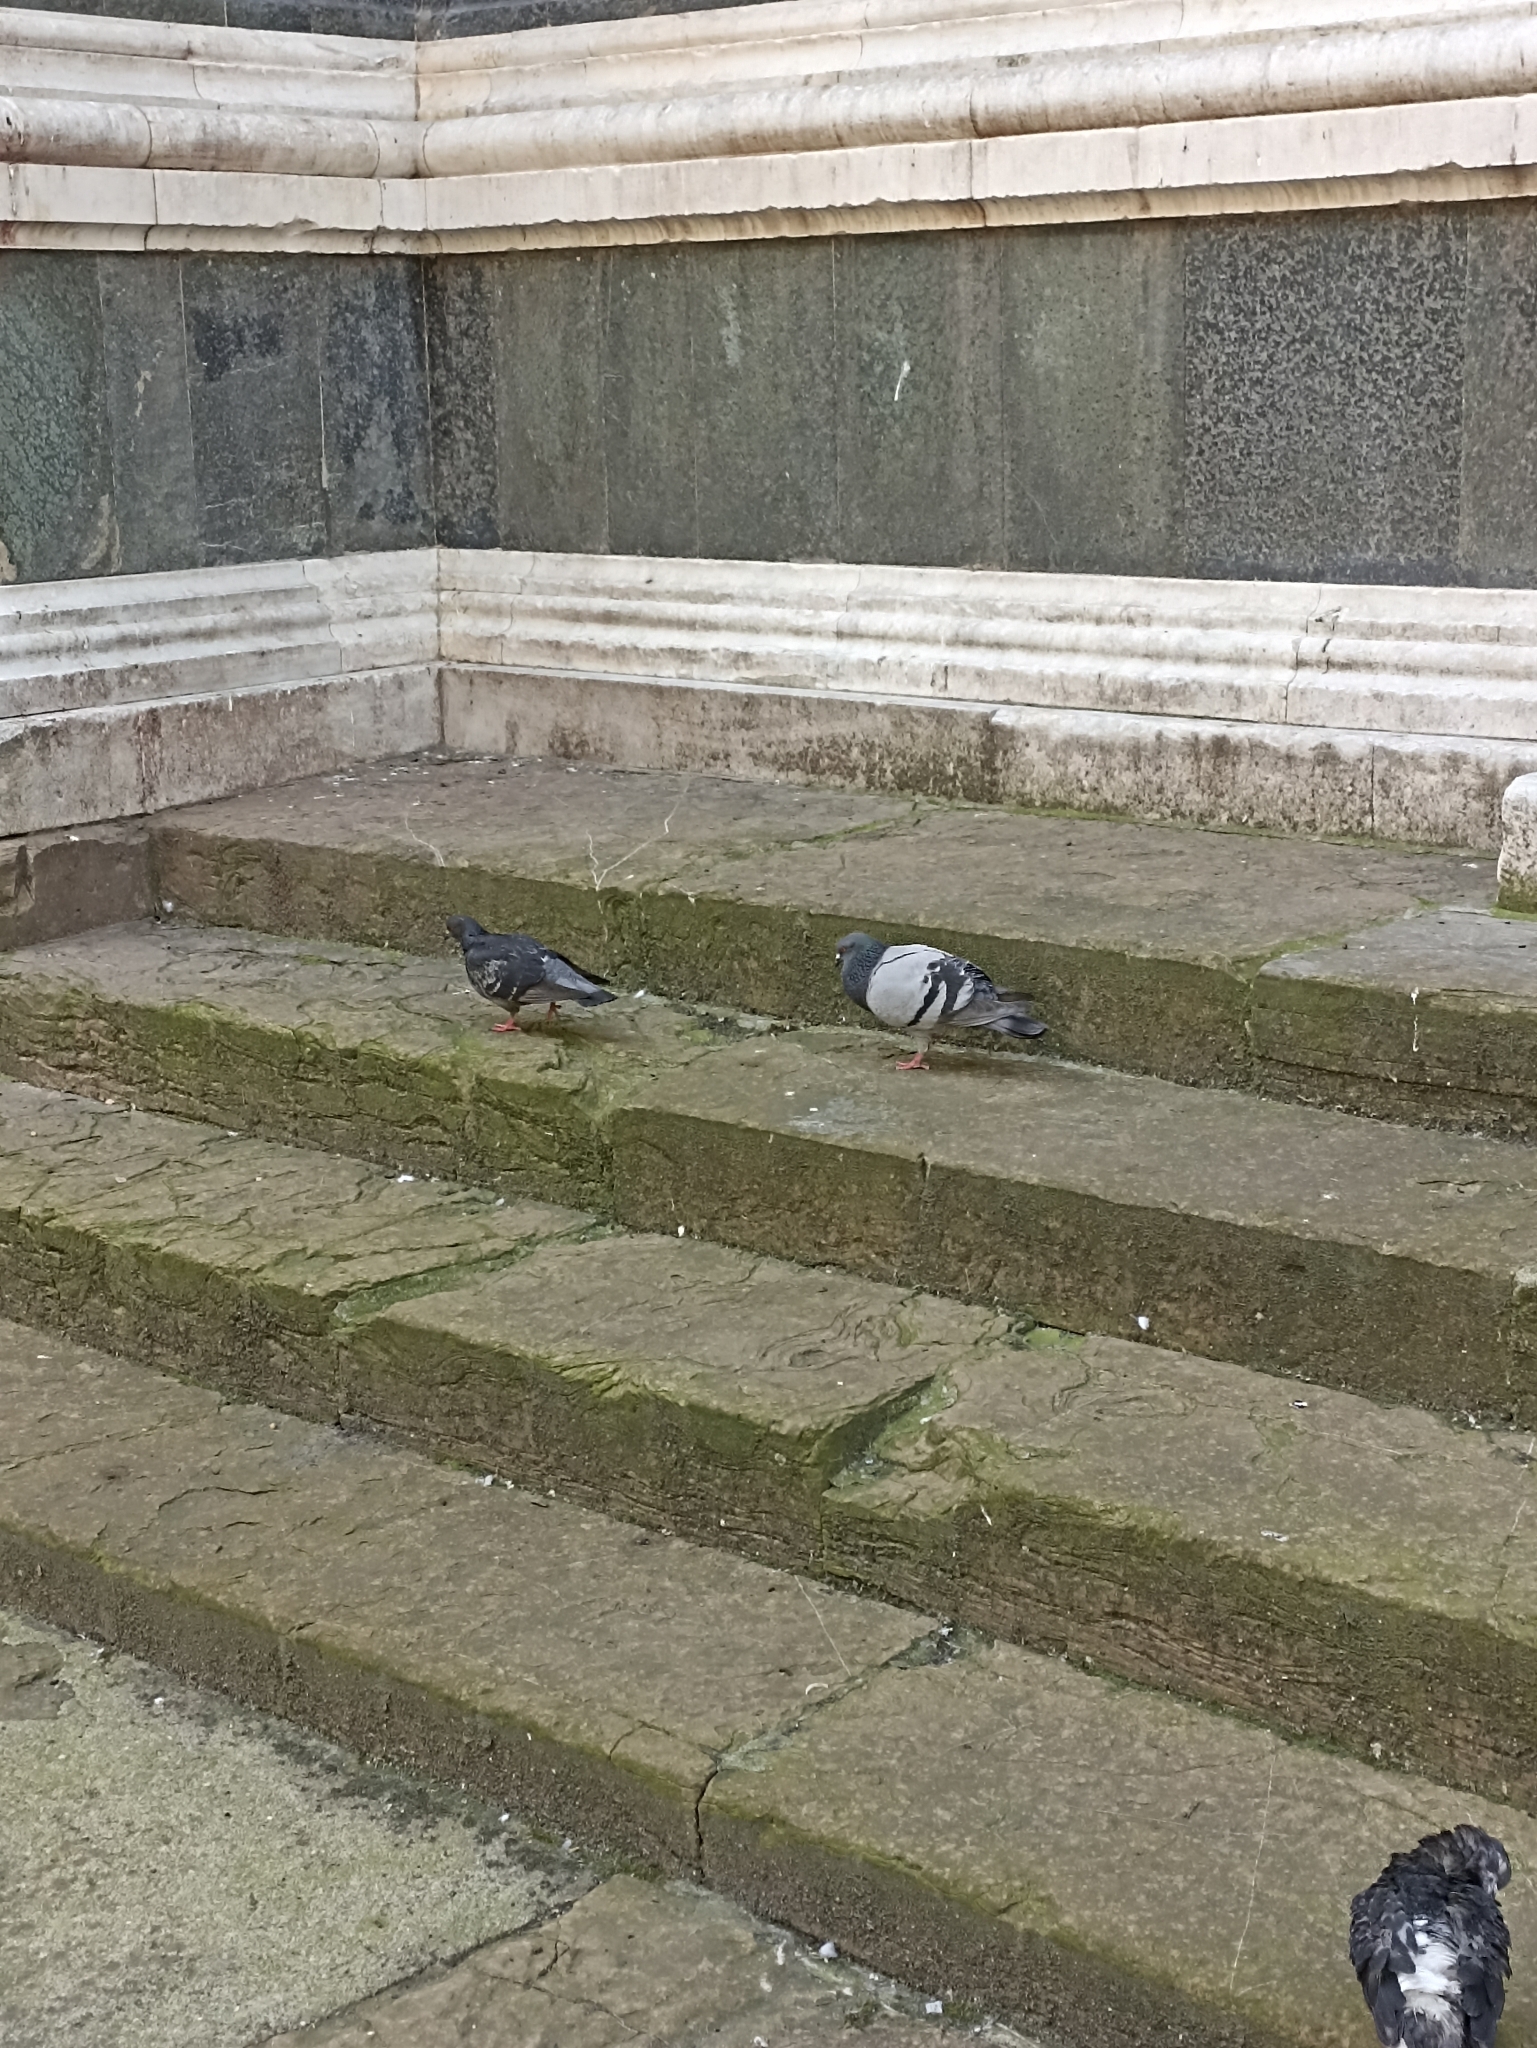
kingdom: Animalia
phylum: Chordata
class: Aves
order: Columbiformes
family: Columbidae
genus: Columba
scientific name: Columba livia
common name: Rock pigeon
